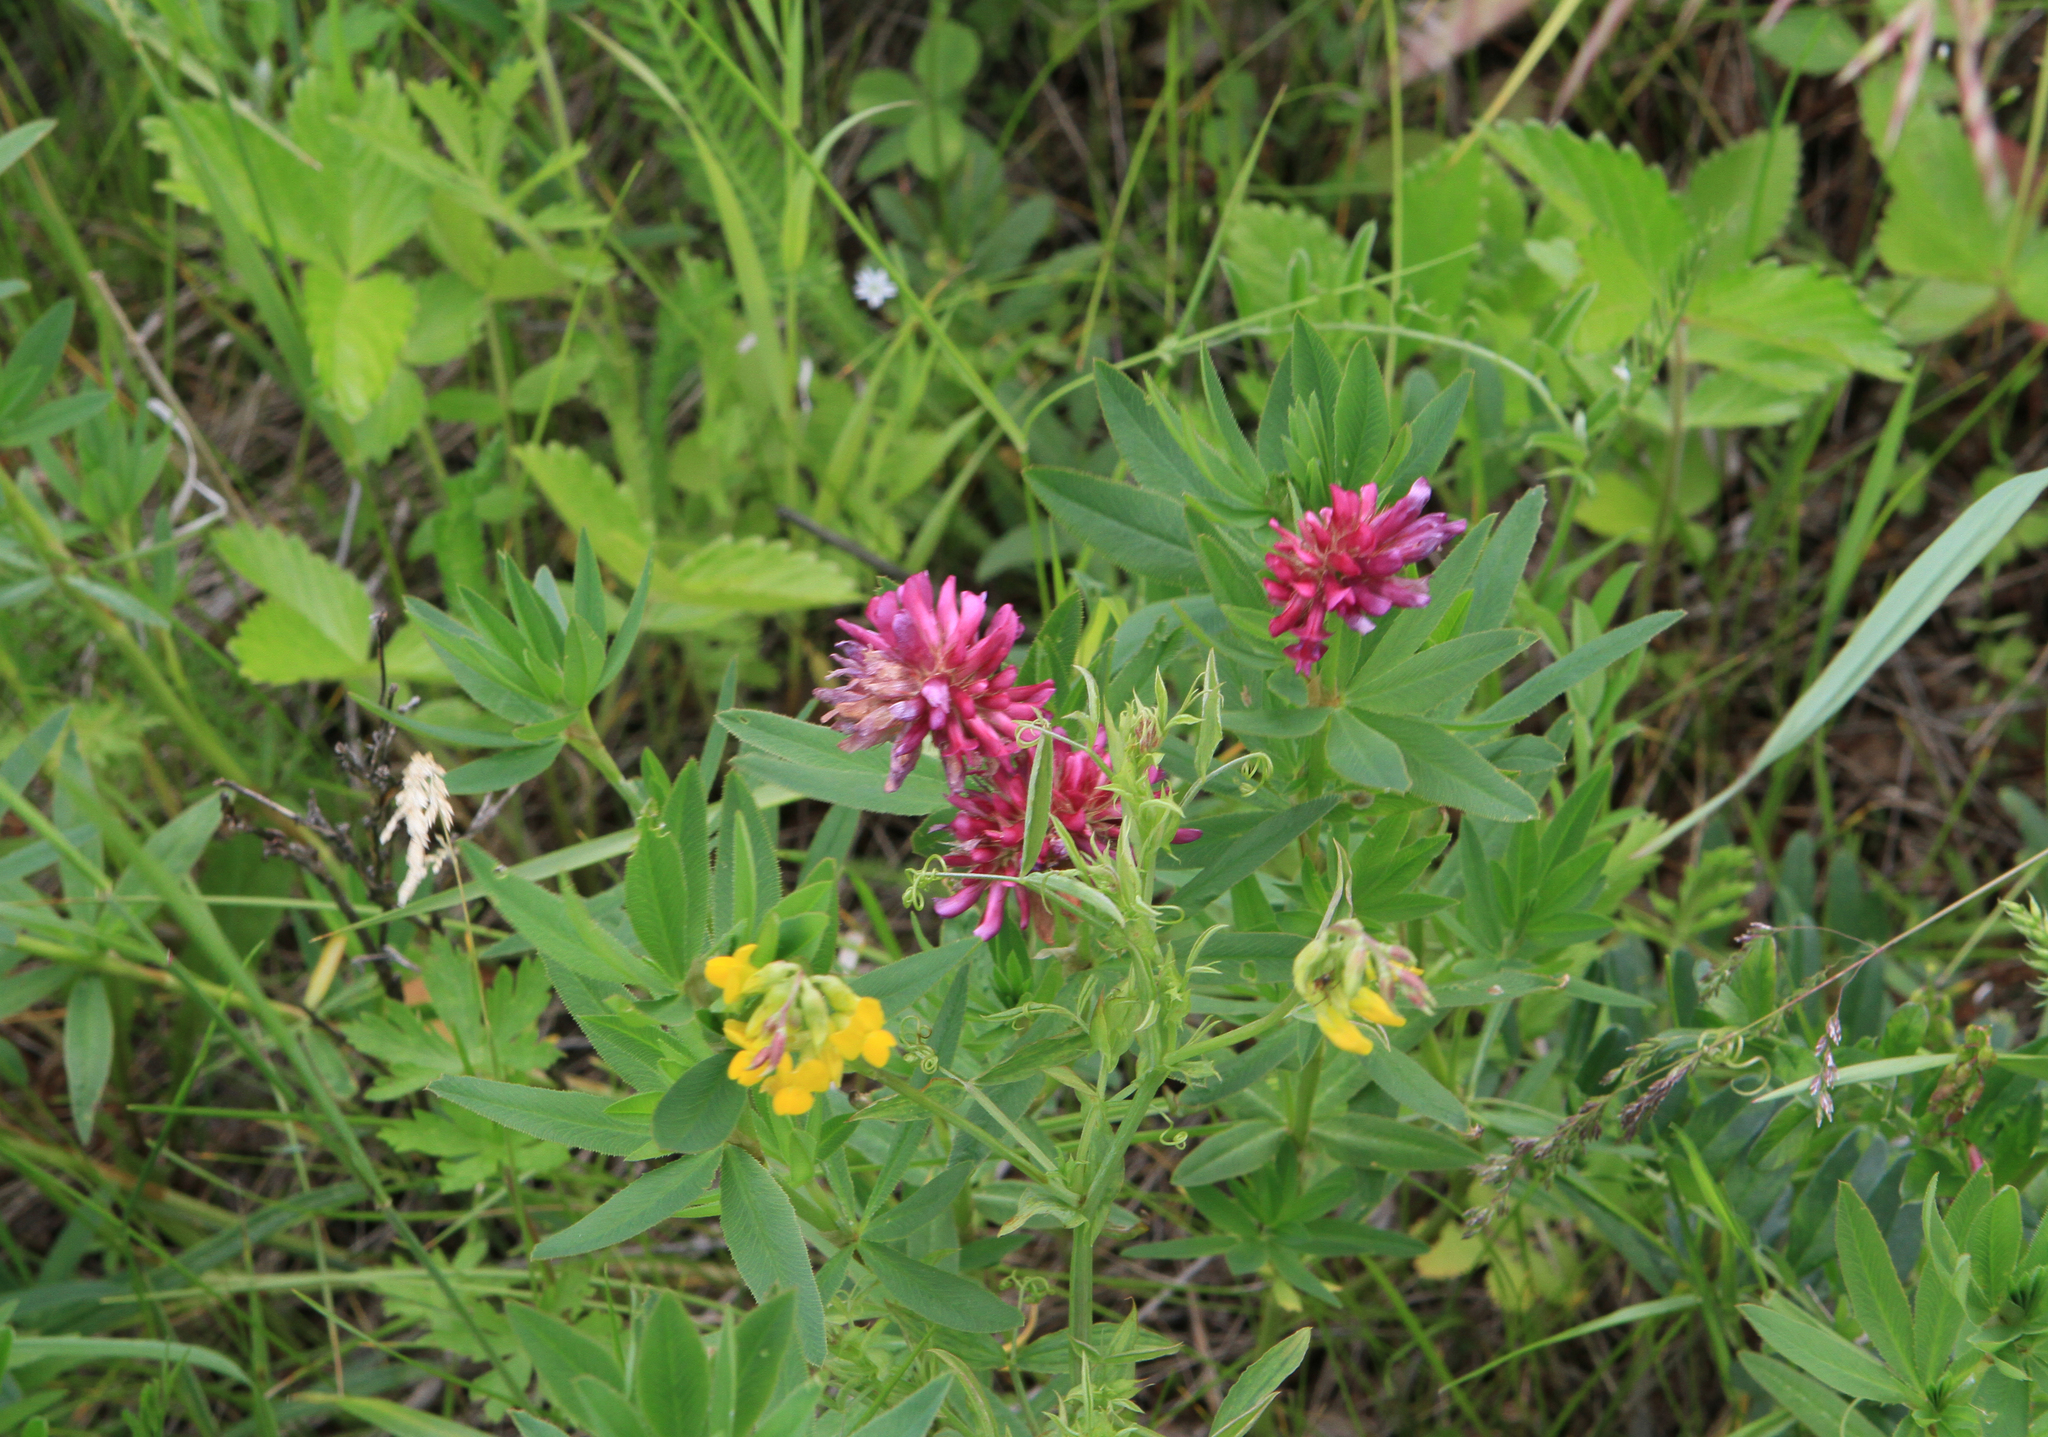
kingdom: Plantae
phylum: Tracheophyta
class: Magnoliopsida
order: Fabales
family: Fabaceae
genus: Trifolium
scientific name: Trifolium lupinaster
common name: Lupine clover
